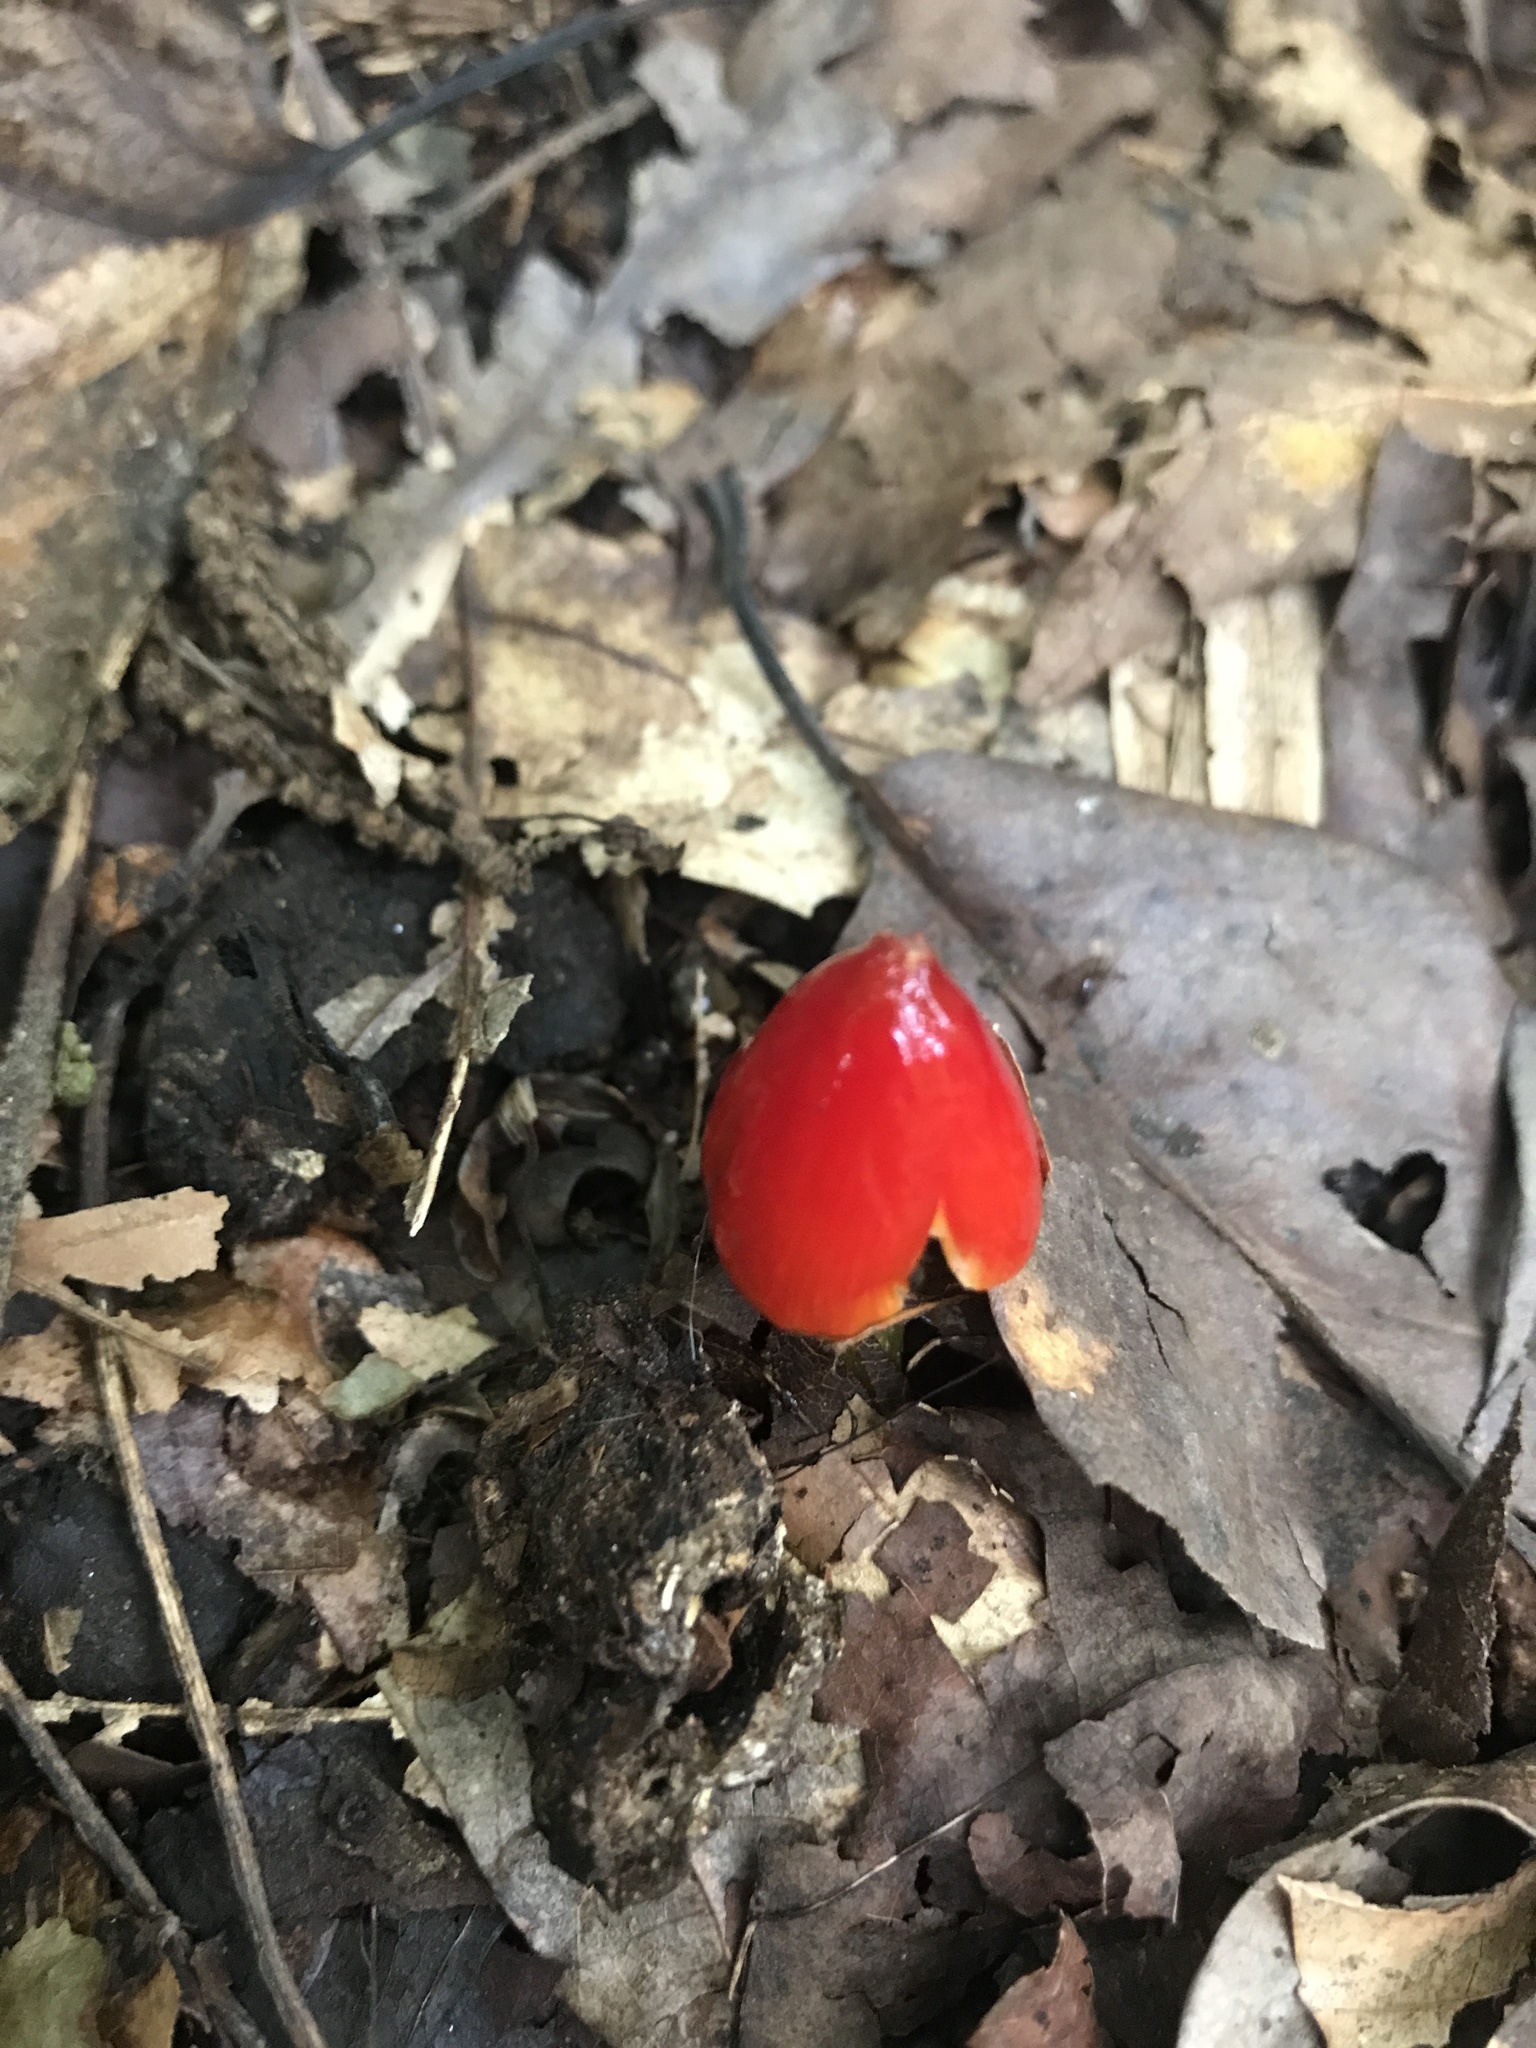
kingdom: Fungi
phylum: Basidiomycota
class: Agaricomycetes
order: Agaricales
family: Hygrophoraceae
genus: Hygrocybe
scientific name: Hygrocybe conica
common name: Blackening wax-cap
